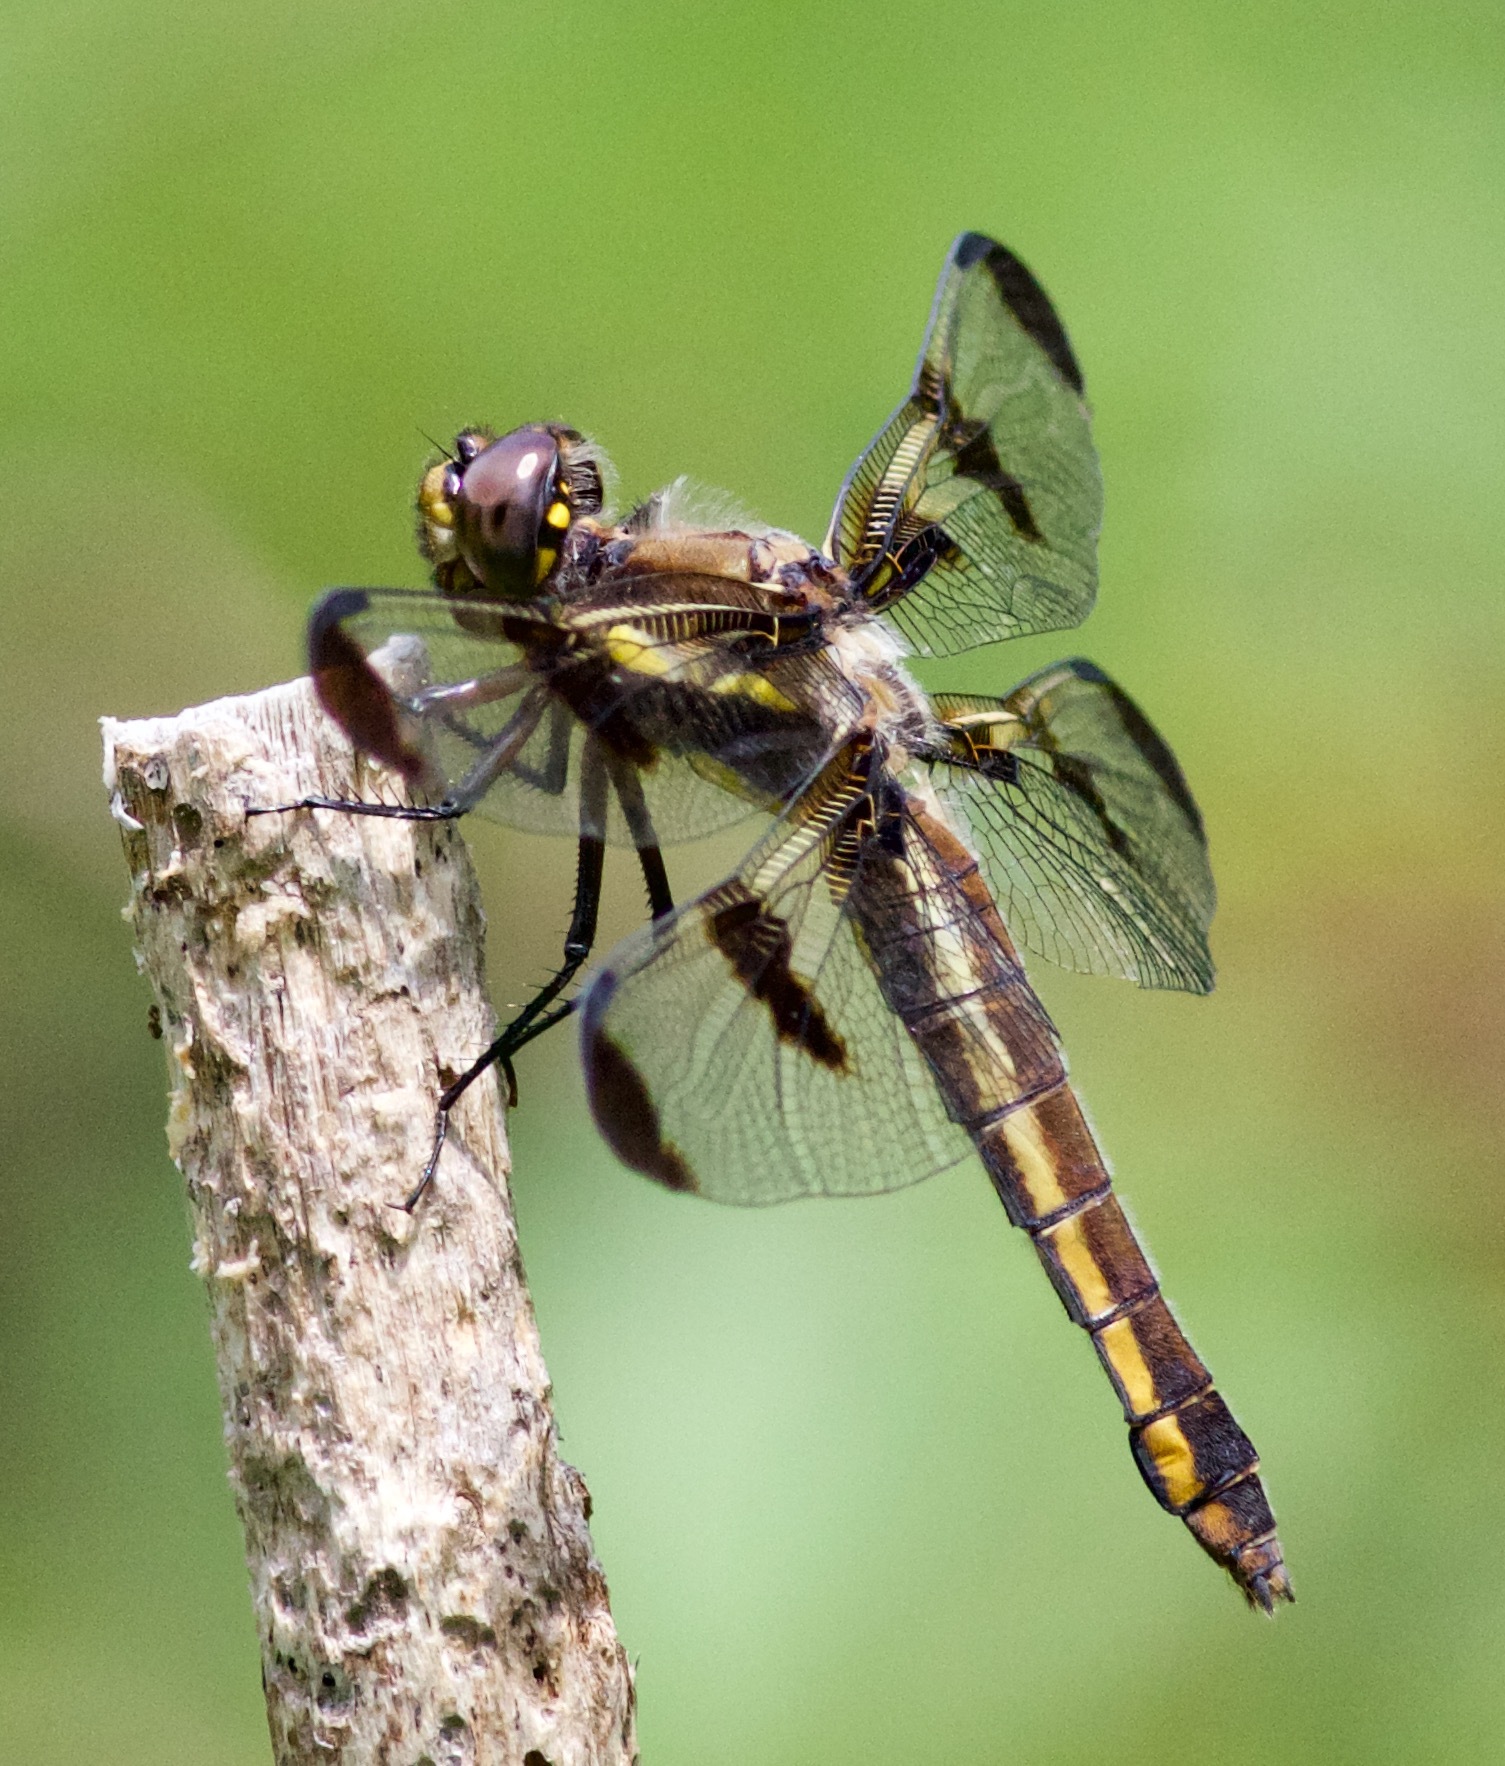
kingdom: Animalia
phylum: Arthropoda
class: Insecta
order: Odonata
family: Libellulidae
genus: Libellula
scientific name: Libellula pulchella
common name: Twelve-spotted skimmer
